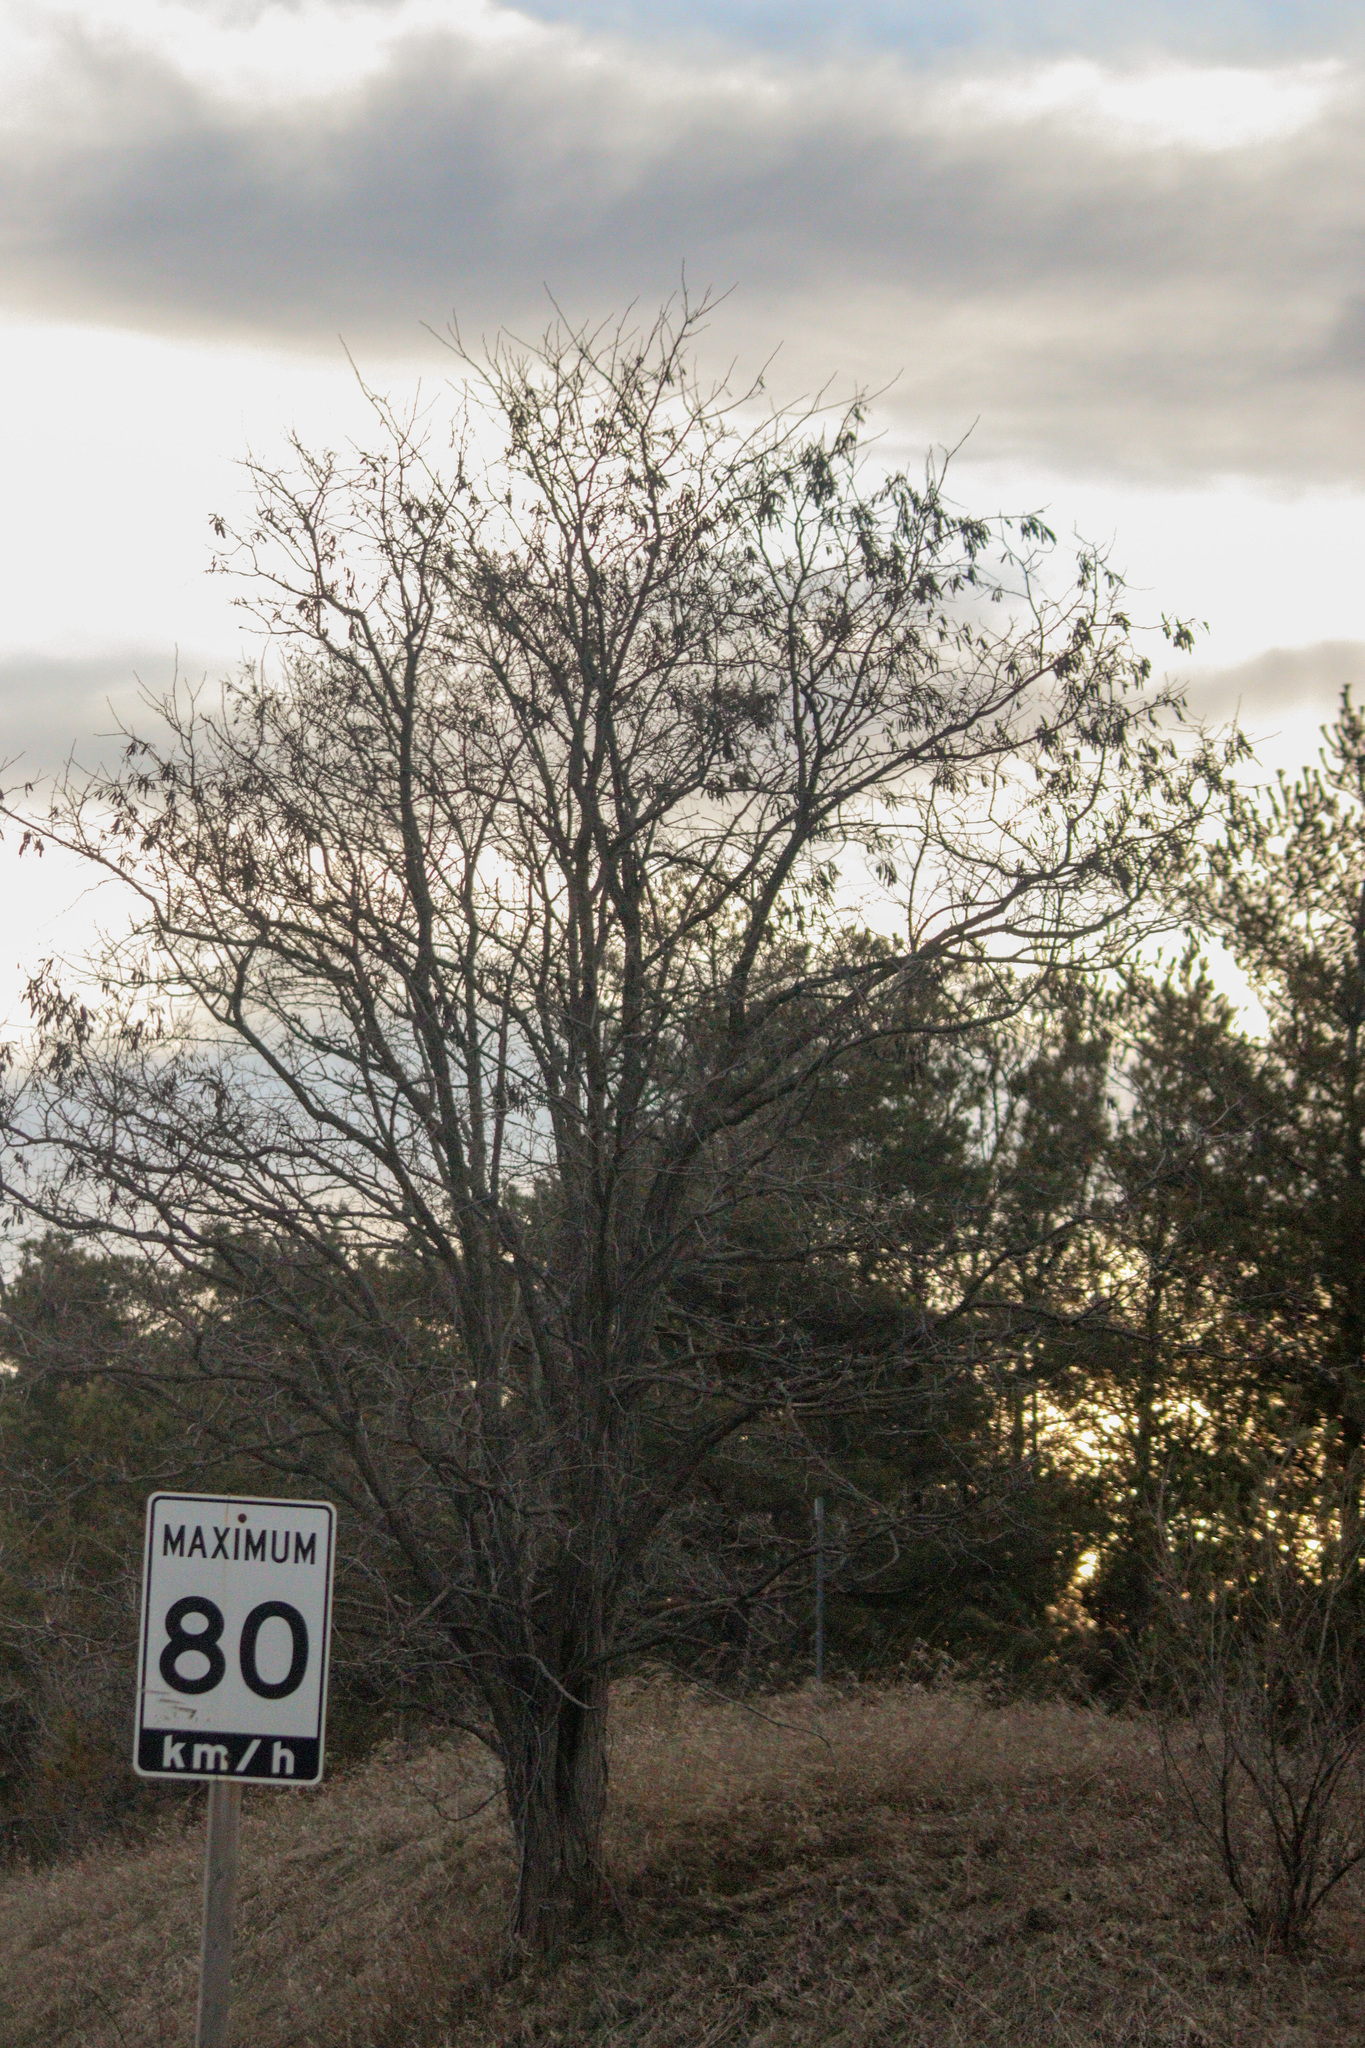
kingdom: Plantae
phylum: Tracheophyta
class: Magnoliopsida
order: Fabales
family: Fabaceae
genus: Robinia
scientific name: Robinia pseudoacacia
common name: Black locust
